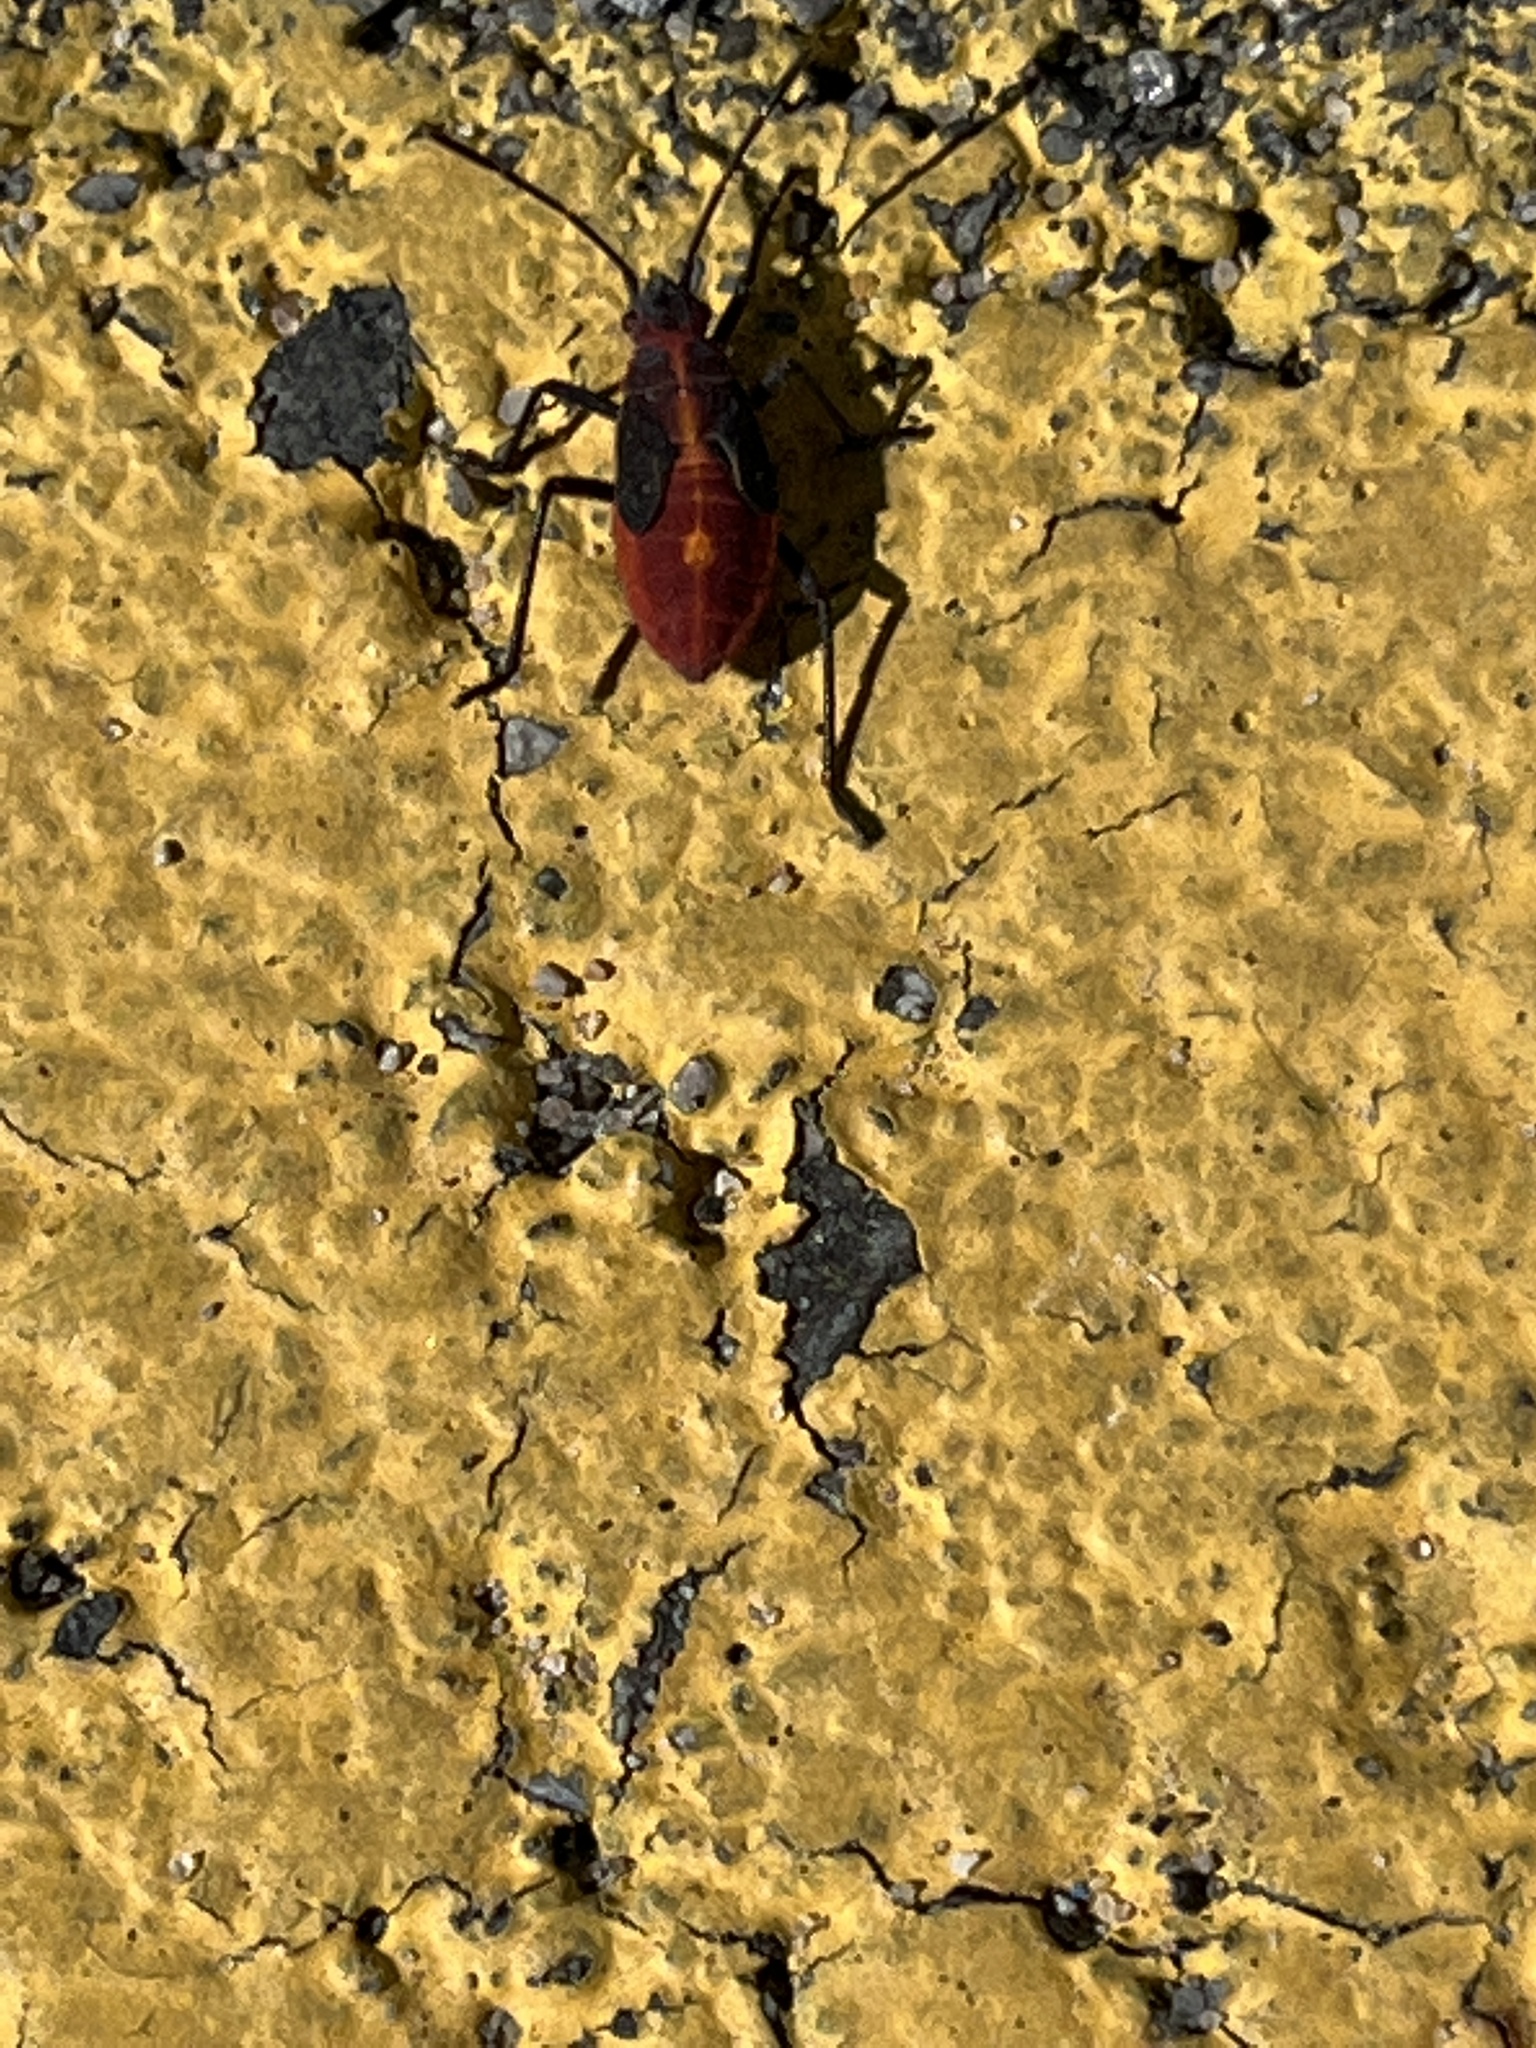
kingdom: Animalia
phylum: Arthropoda
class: Insecta
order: Hemiptera
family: Rhopalidae
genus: Boisea
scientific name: Boisea trivittata
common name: Boxelder bug
